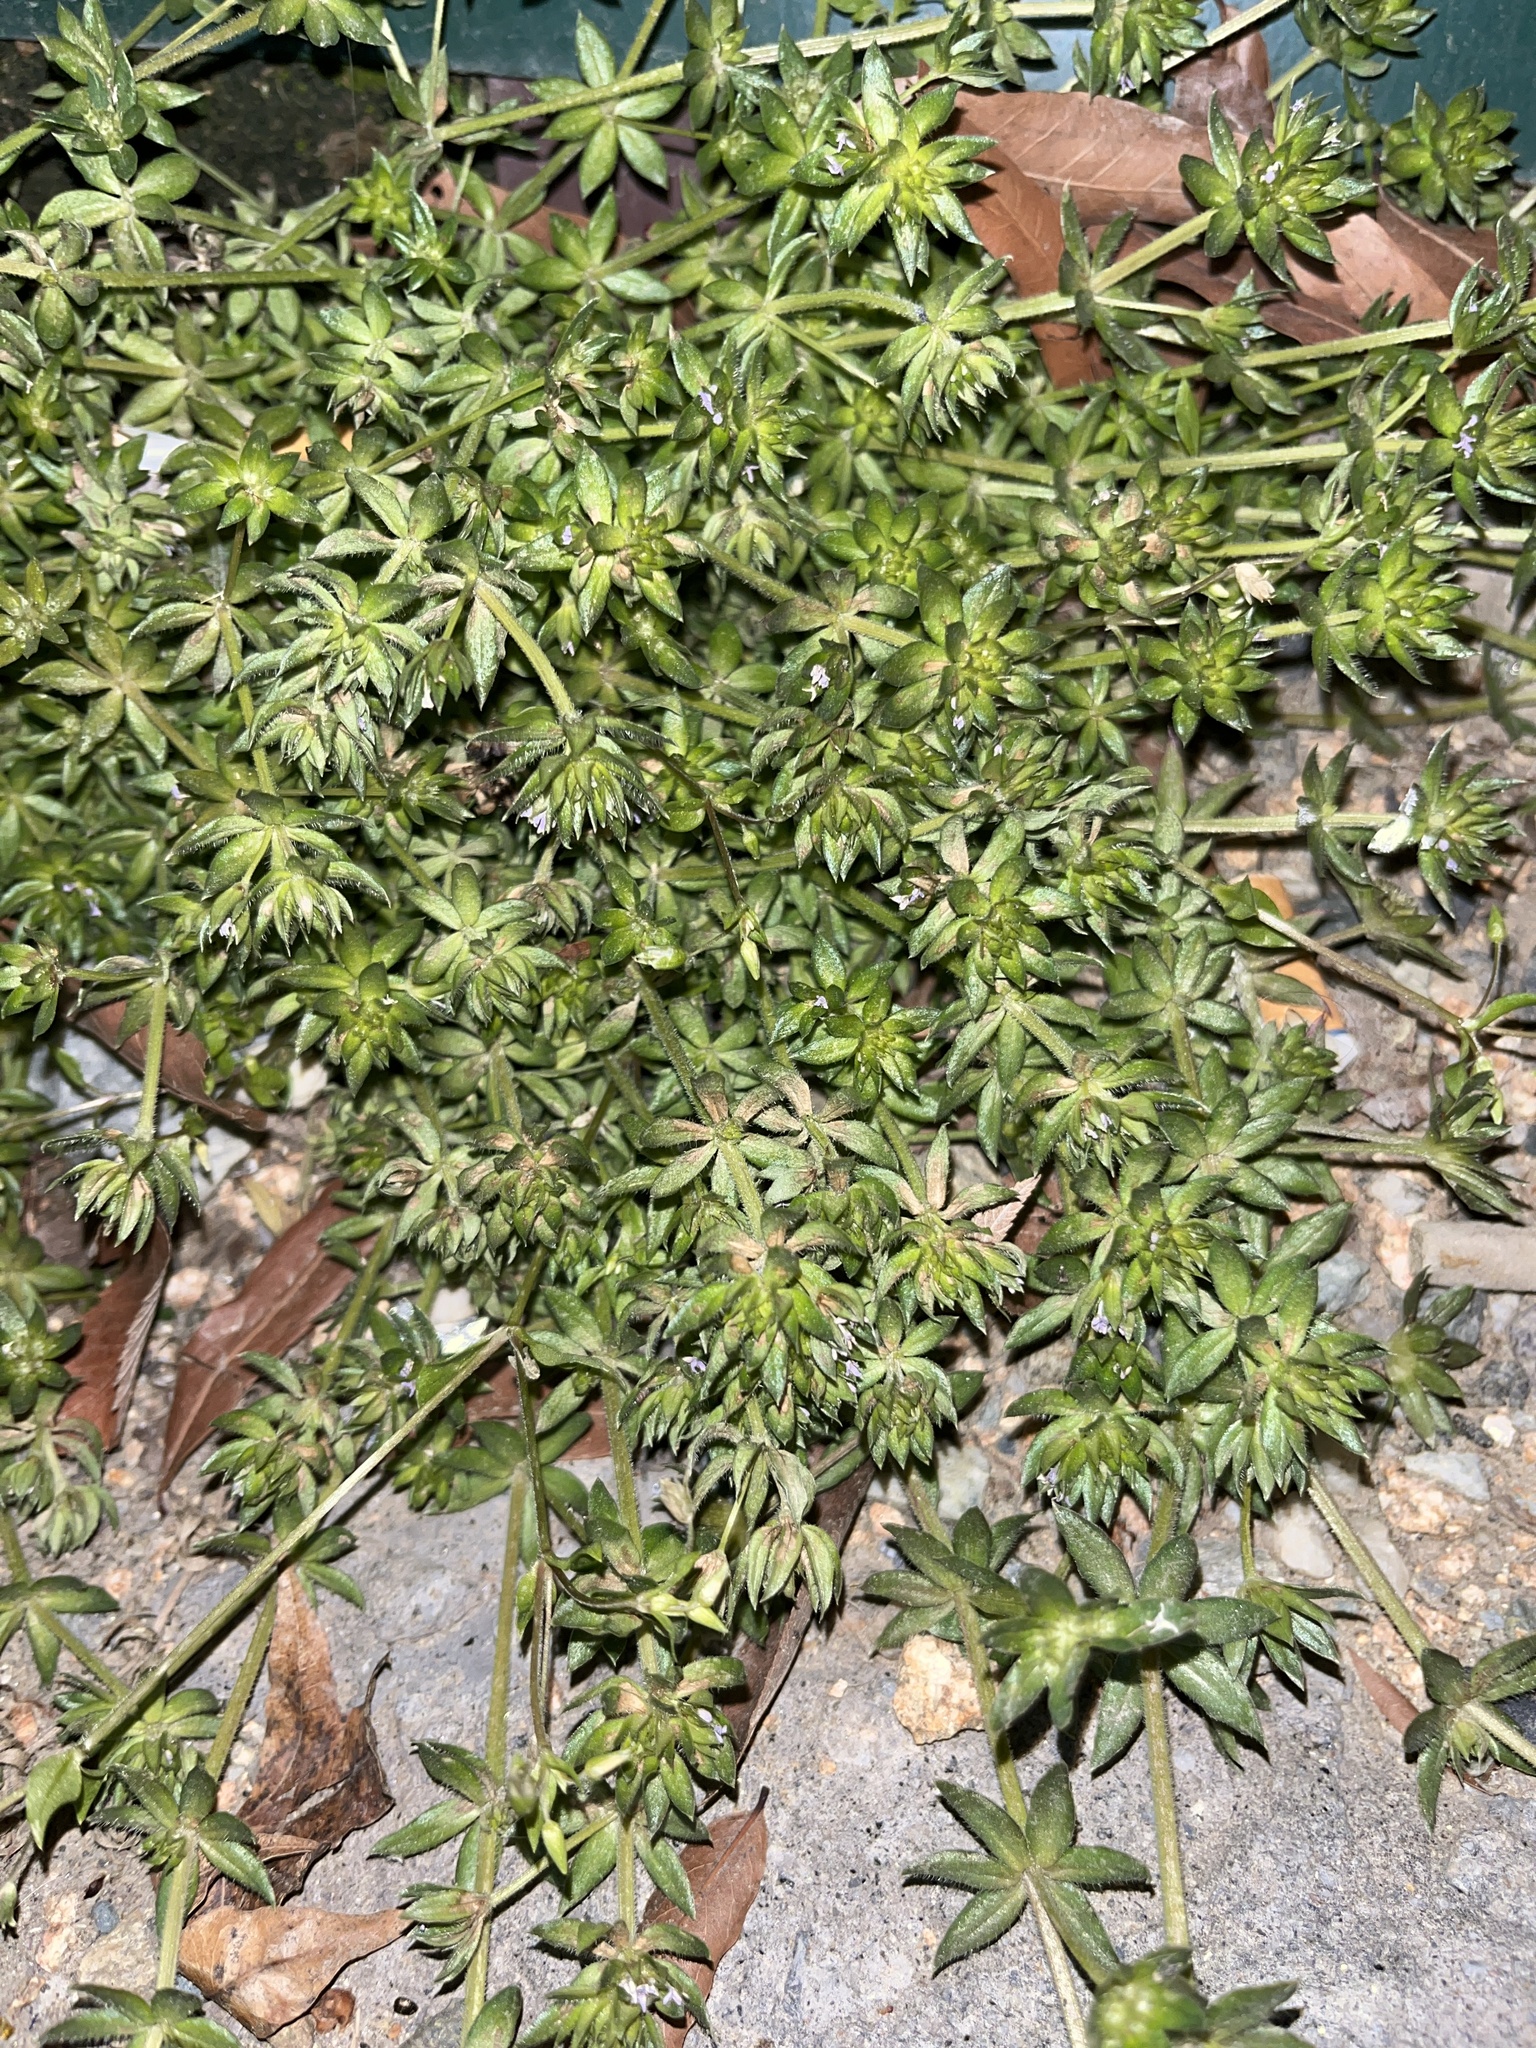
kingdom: Plantae
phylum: Tracheophyta
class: Magnoliopsida
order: Gentianales
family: Rubiaceae
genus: Sherardia
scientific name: Sherardia arvensis
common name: Field madder
